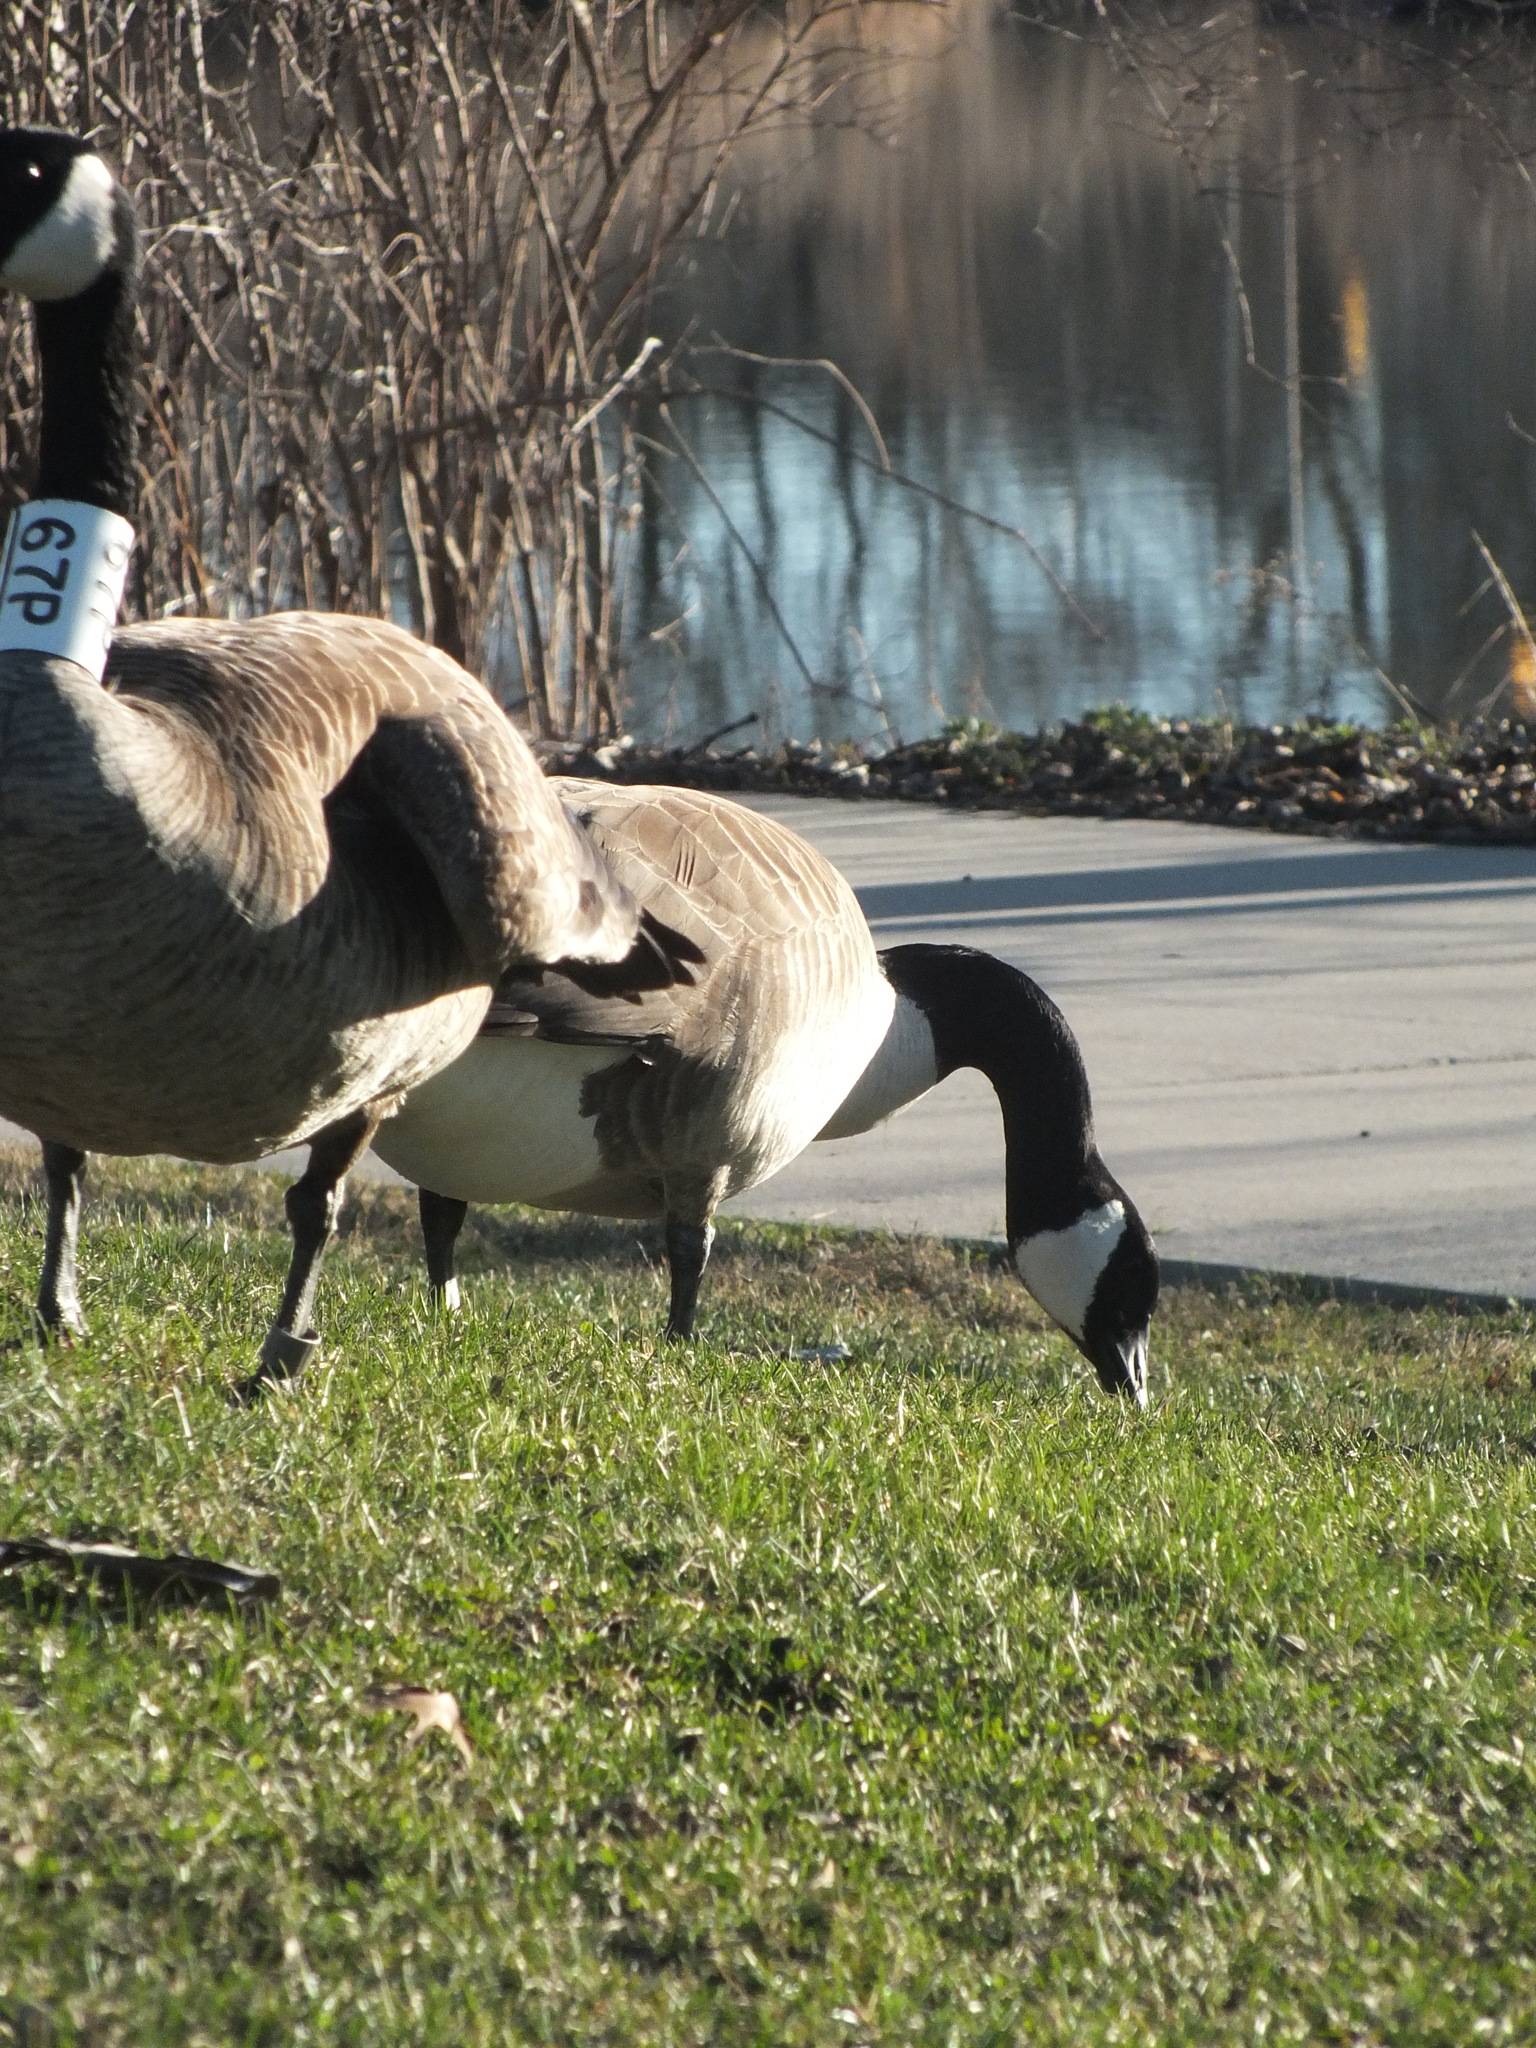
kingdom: Animalia
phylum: Chordata
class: Aves
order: Anseriformes
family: Anatidae
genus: Branta
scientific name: Branta canadensis
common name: Canada goose
